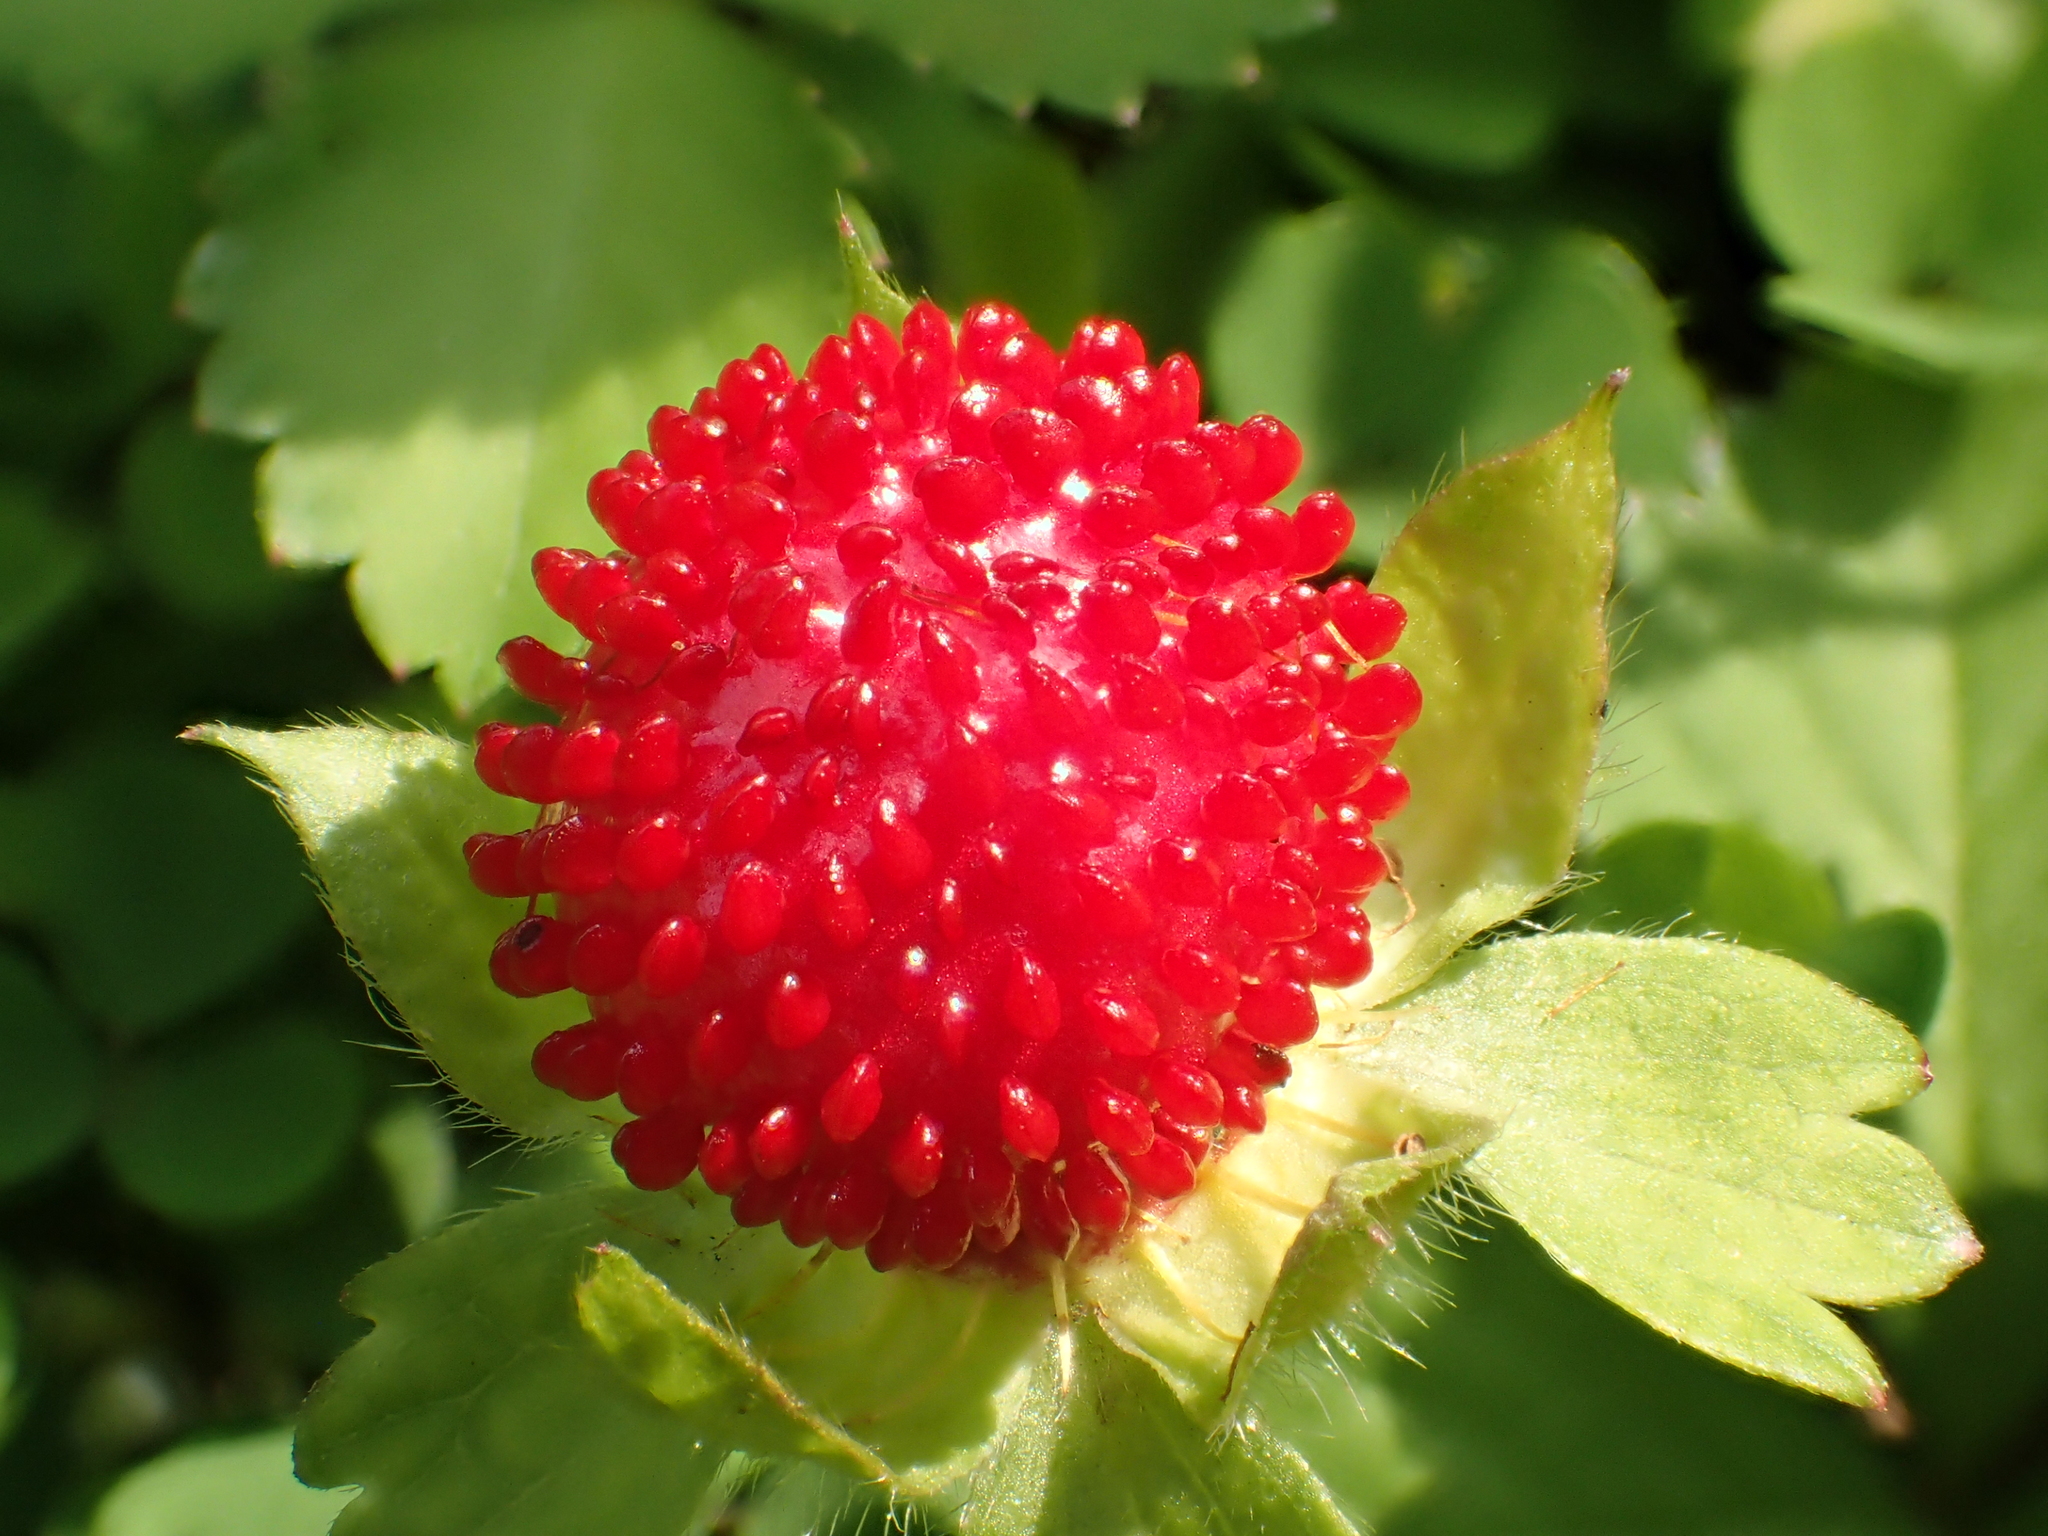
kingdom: Plantae
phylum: Tracheophyta
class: Magnoliopsida
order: Rosales
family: Rosaceae
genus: Potentilla
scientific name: Potentilla indica
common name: Yellow-flowered strawberry
